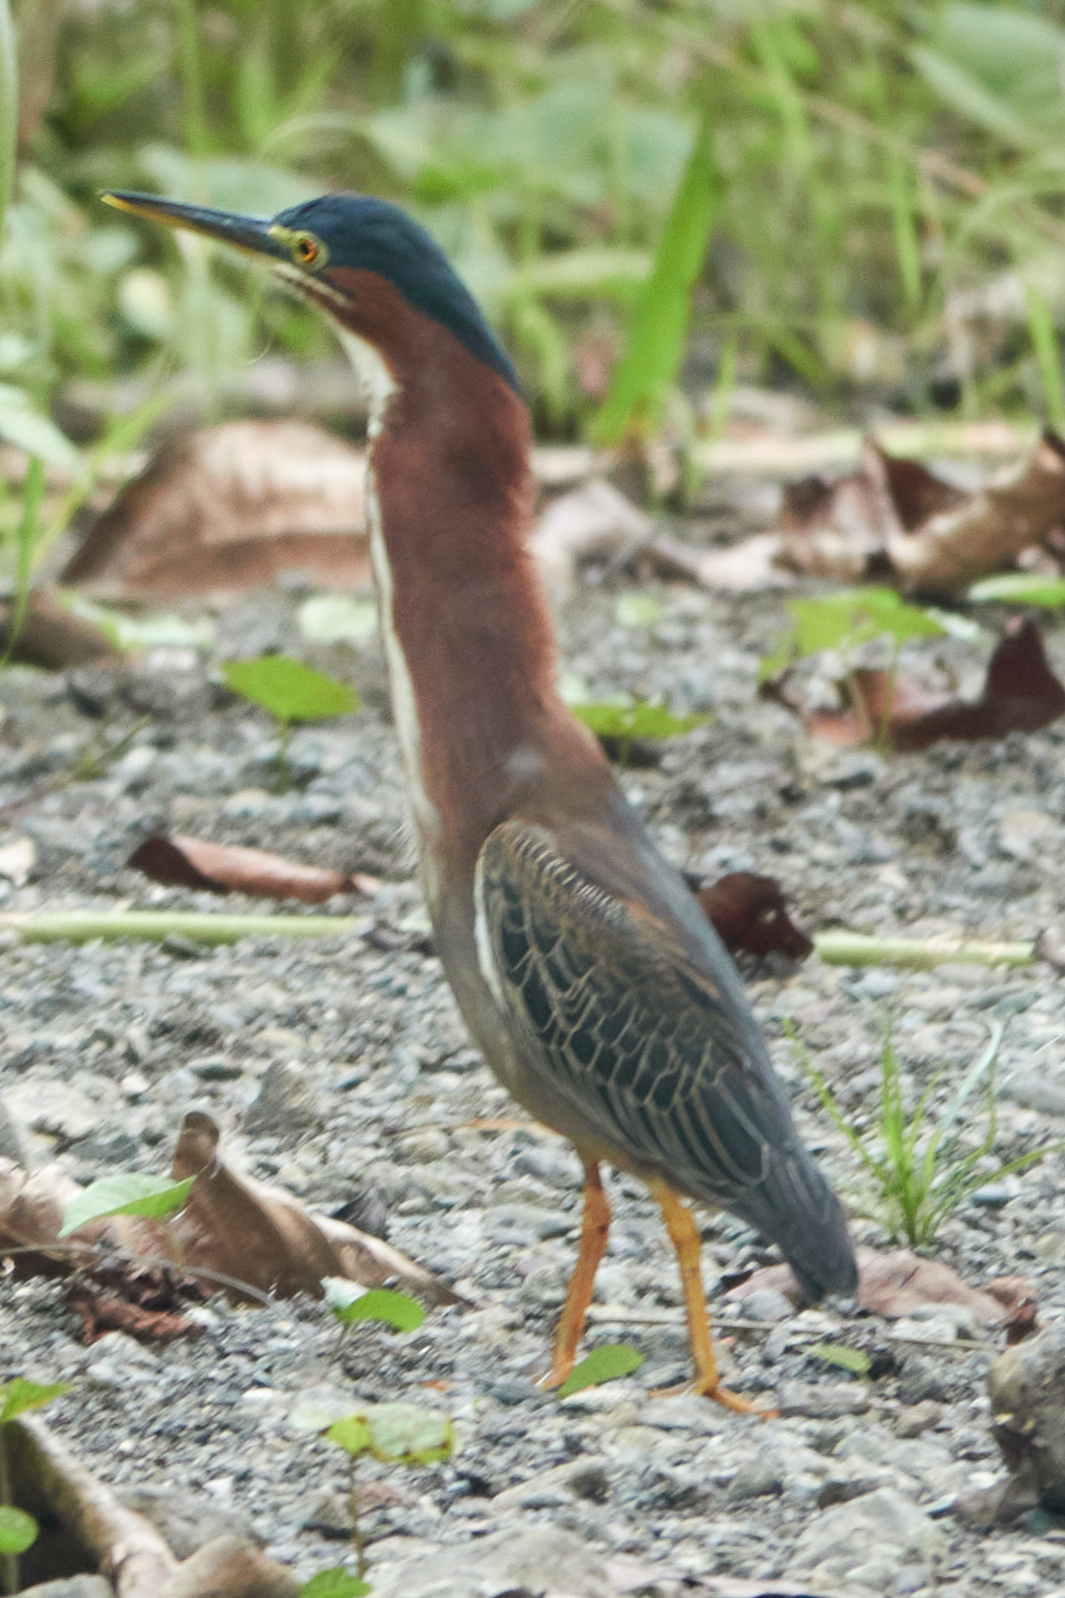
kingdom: Animalia
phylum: Chordata
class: Aves
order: Pelecaniformes
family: Ardeidae
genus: Butorides
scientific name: Butorides virescens
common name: Green heron
